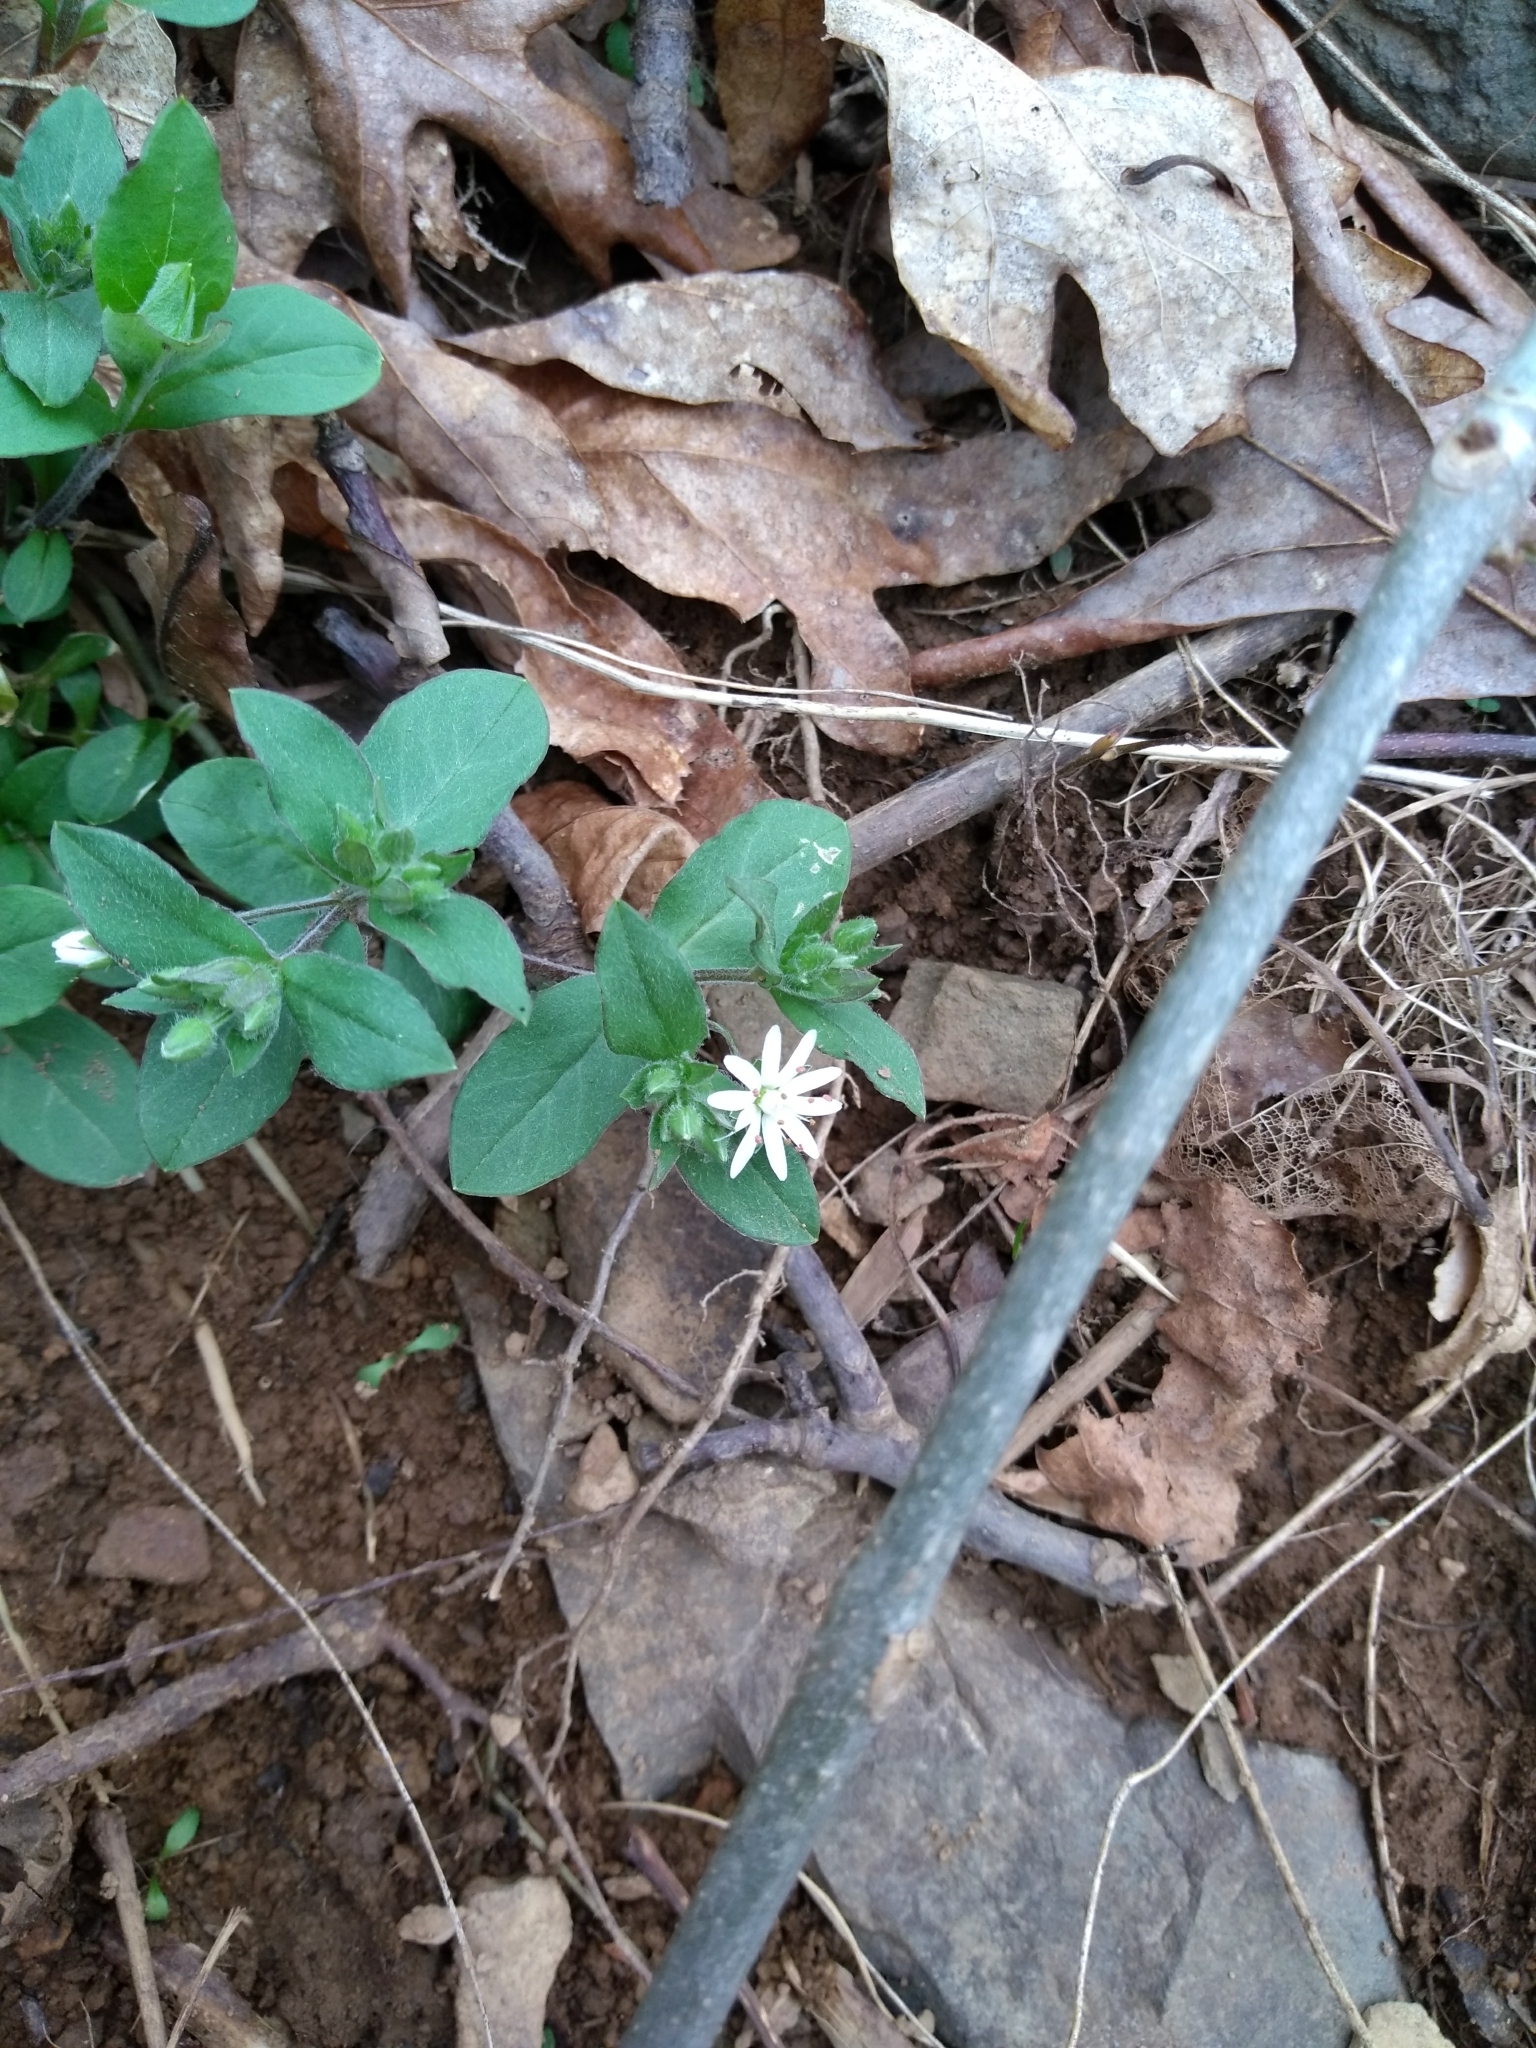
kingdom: Plantae
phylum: Tracheophyta
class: Magnoliopsida
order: Caryophyllales
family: Caryophyllaceae
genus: Stellaria
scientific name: Stellaria pubera
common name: Star chickweed
